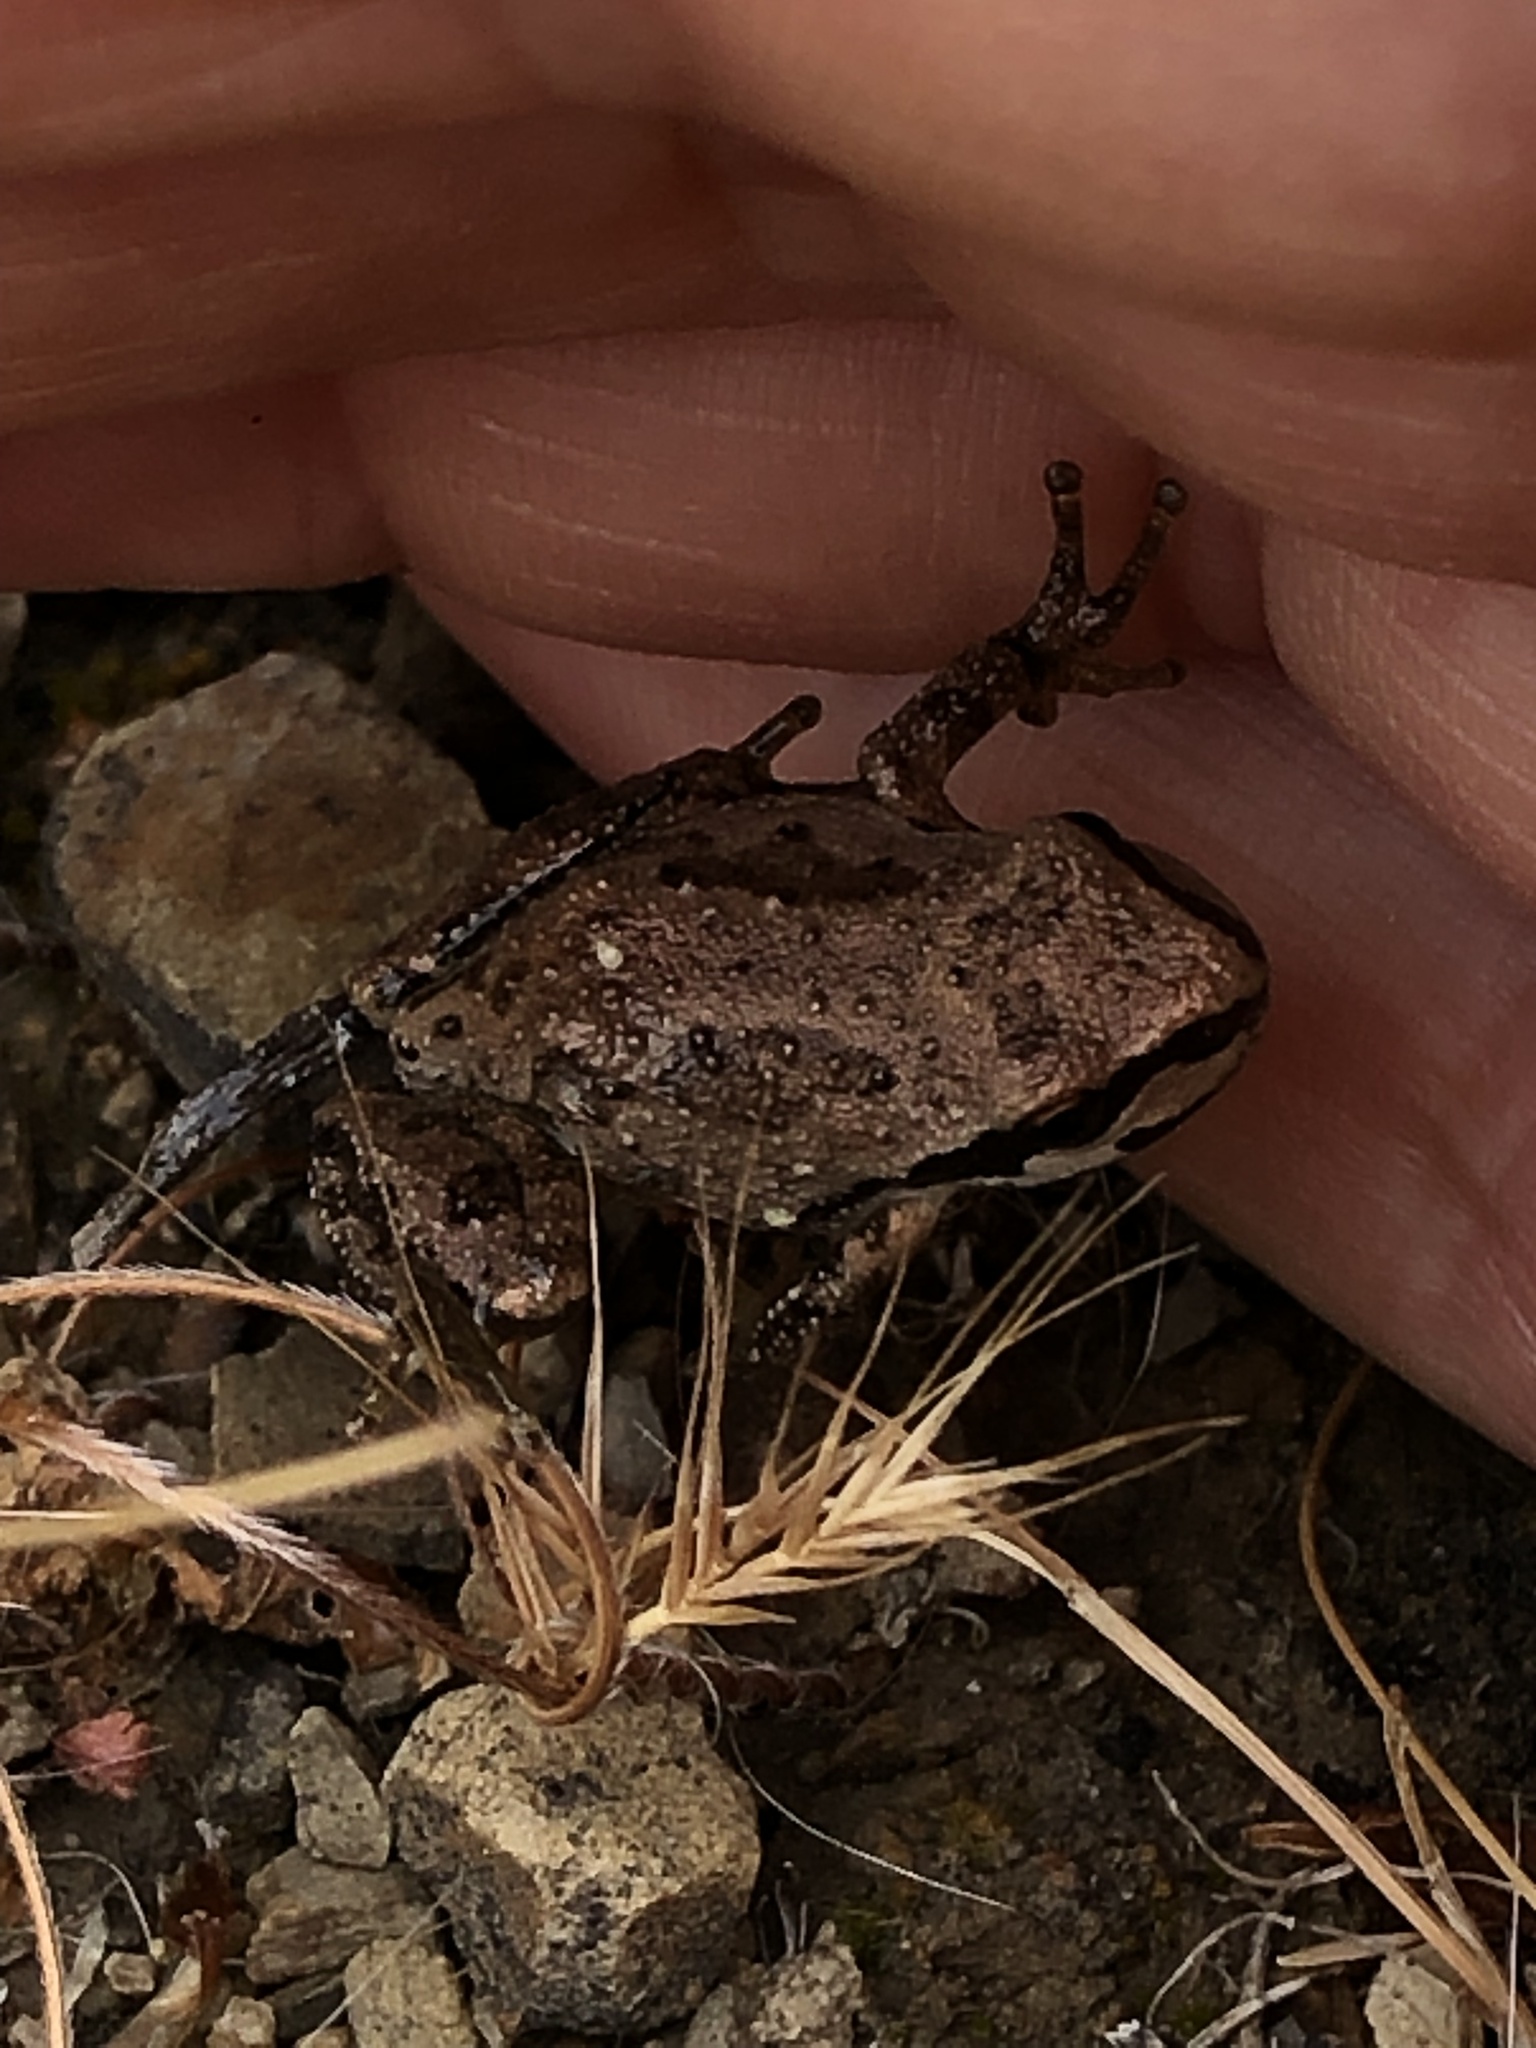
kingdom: Animalia
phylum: Chordata
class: Amphibia
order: Anura
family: Hylidae
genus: Pseudacris
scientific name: Pseudacris regilla
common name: Pacific chorus frog
